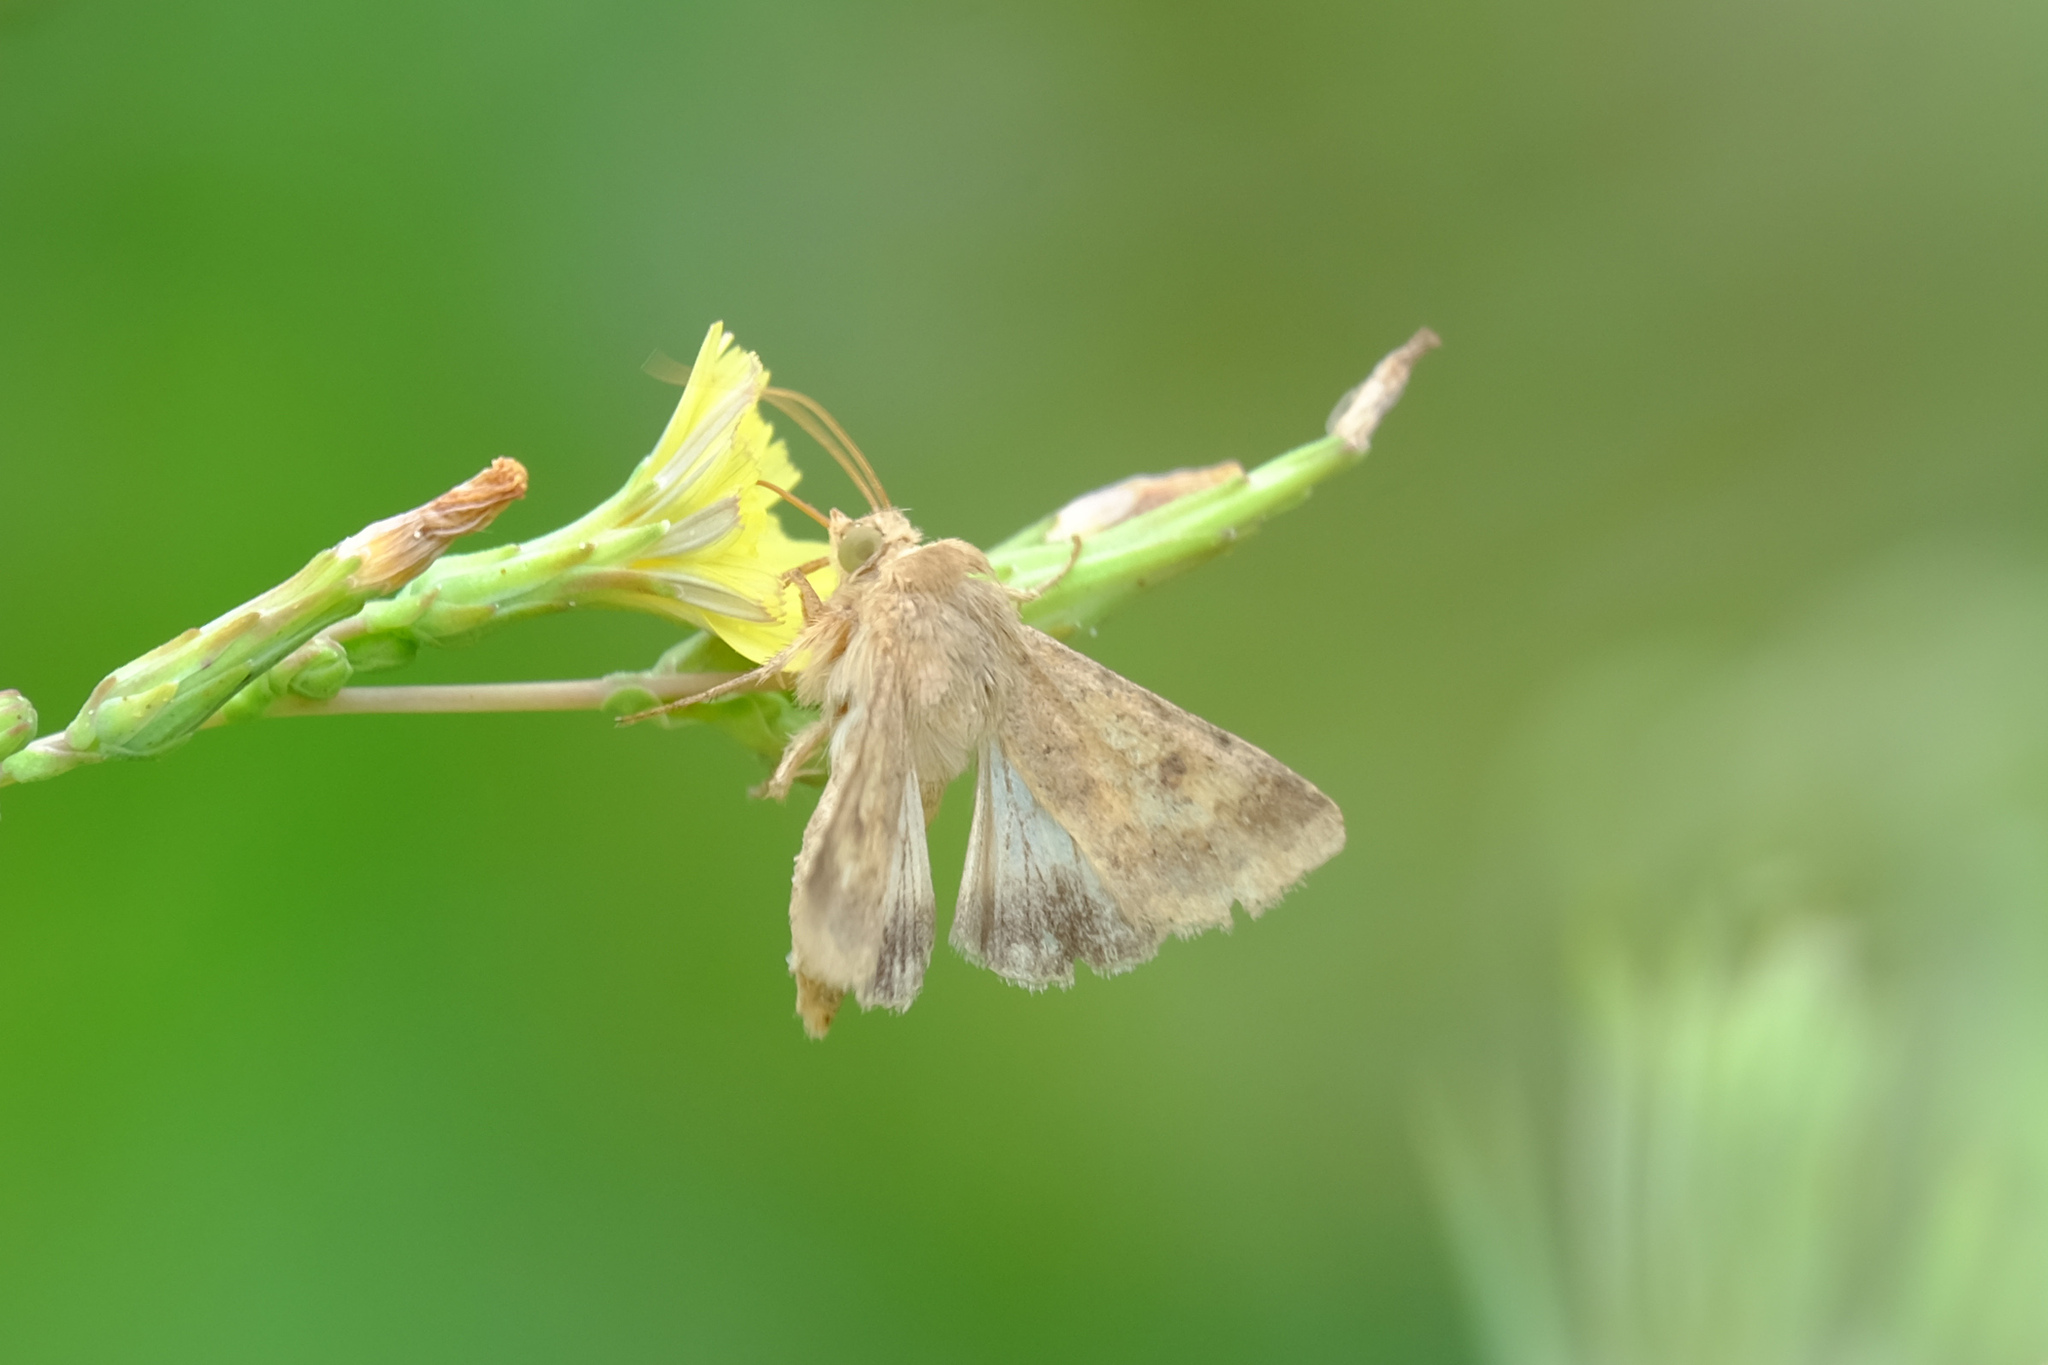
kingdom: Animalia
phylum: Arthropoda
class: Insecta
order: Lepidoptera
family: Noctuidae
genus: Helicoverpa
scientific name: Helicoverpa armigera
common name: Cotton bollworm
